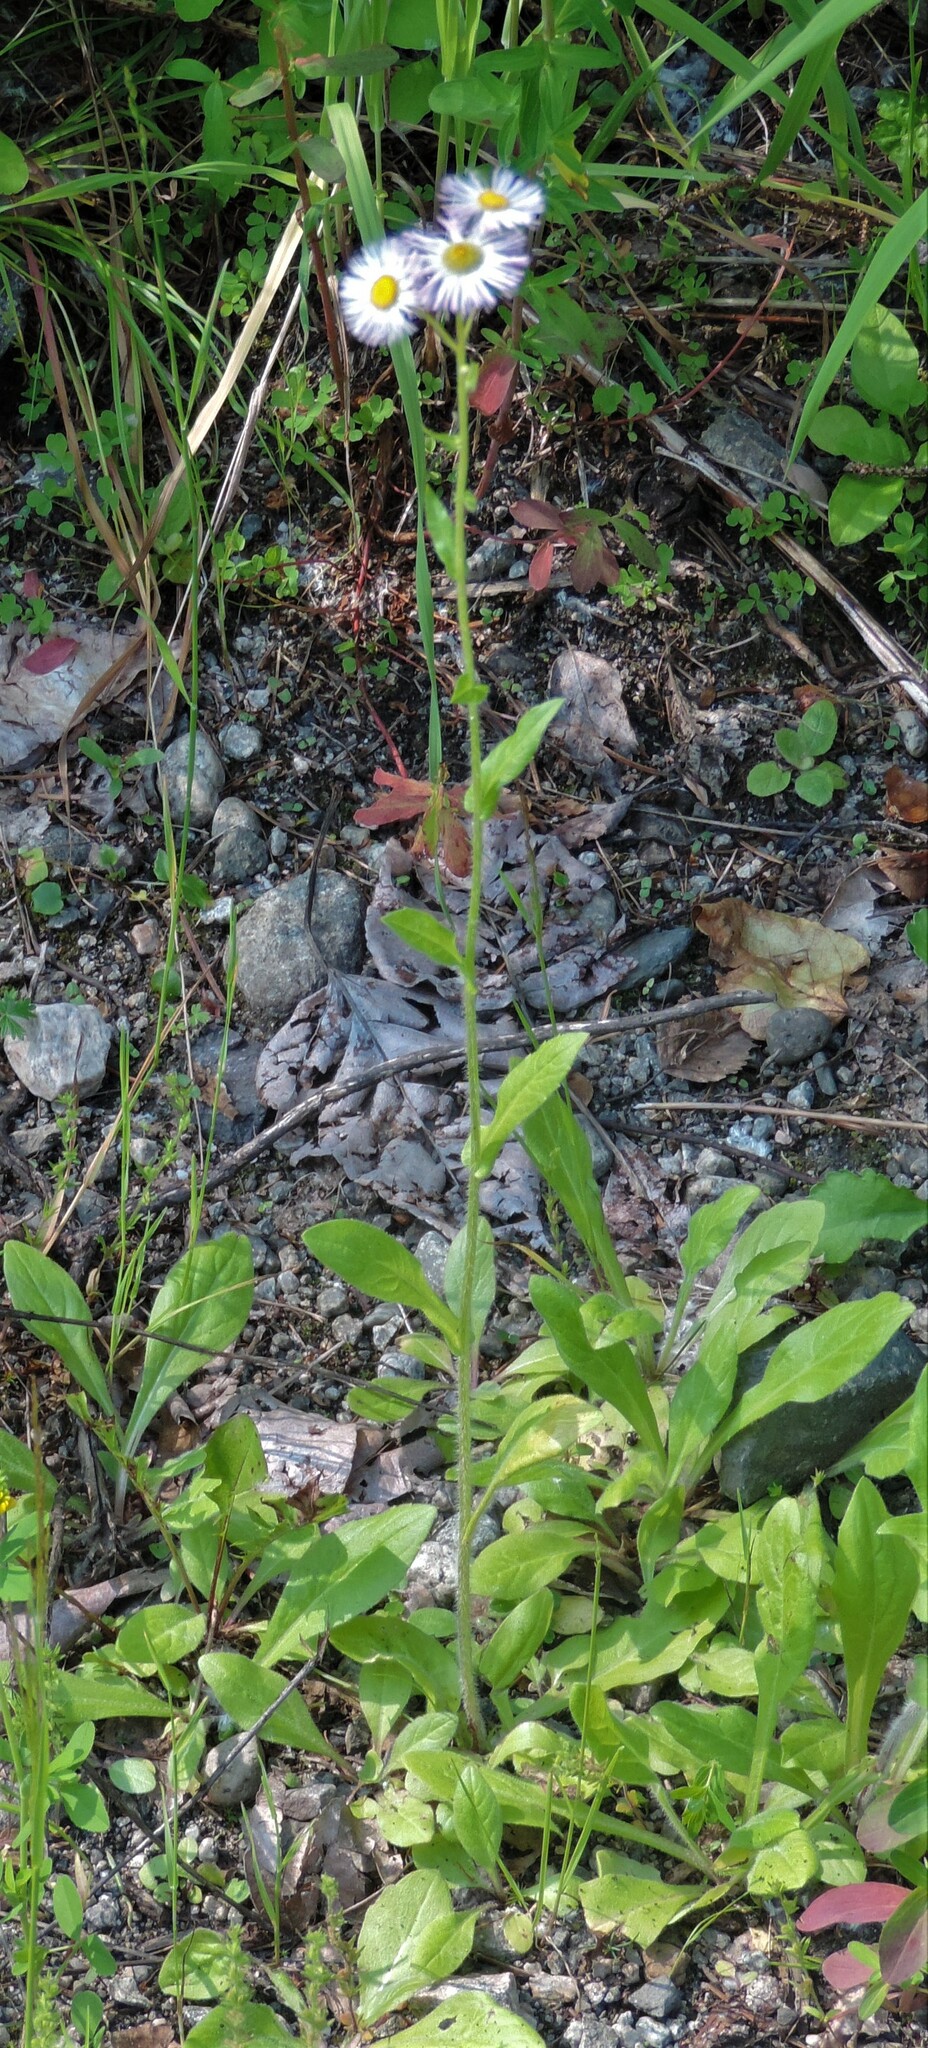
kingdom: Plantae
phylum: Tracheophyta
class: Magnoliopsida
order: Asterales
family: Asteraceae
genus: Erigeron
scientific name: Erigeron philadelphicus
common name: Robin's-plantain
